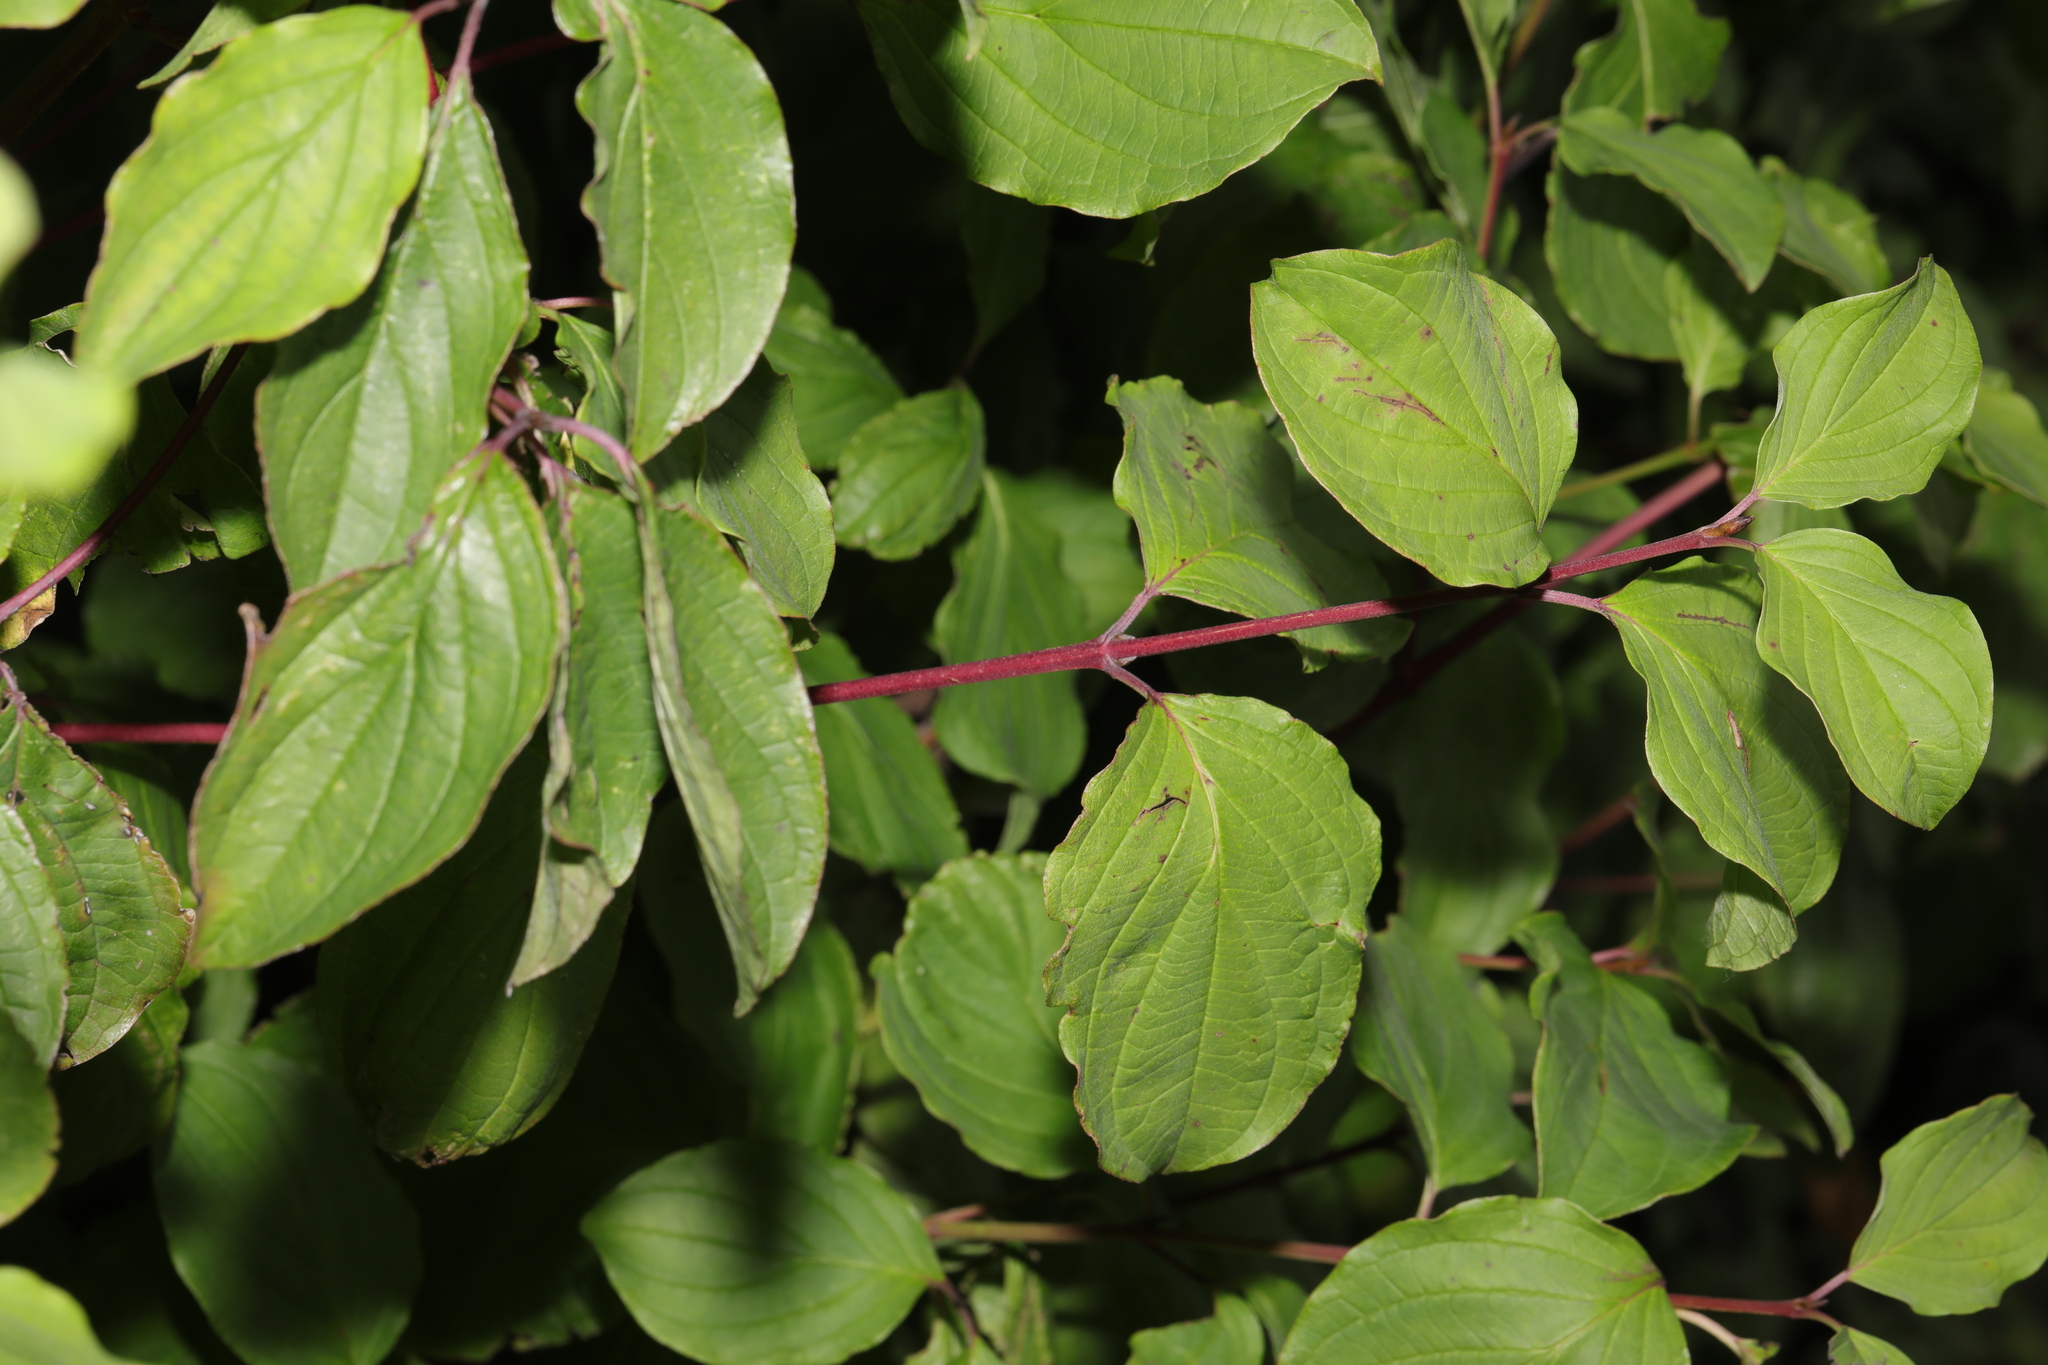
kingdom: Plantae
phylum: Tracheophyta
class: Magnoliopsida
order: Cornales
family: Cornaceae
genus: Cornus
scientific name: Cornus sanguinea
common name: Dogwood
